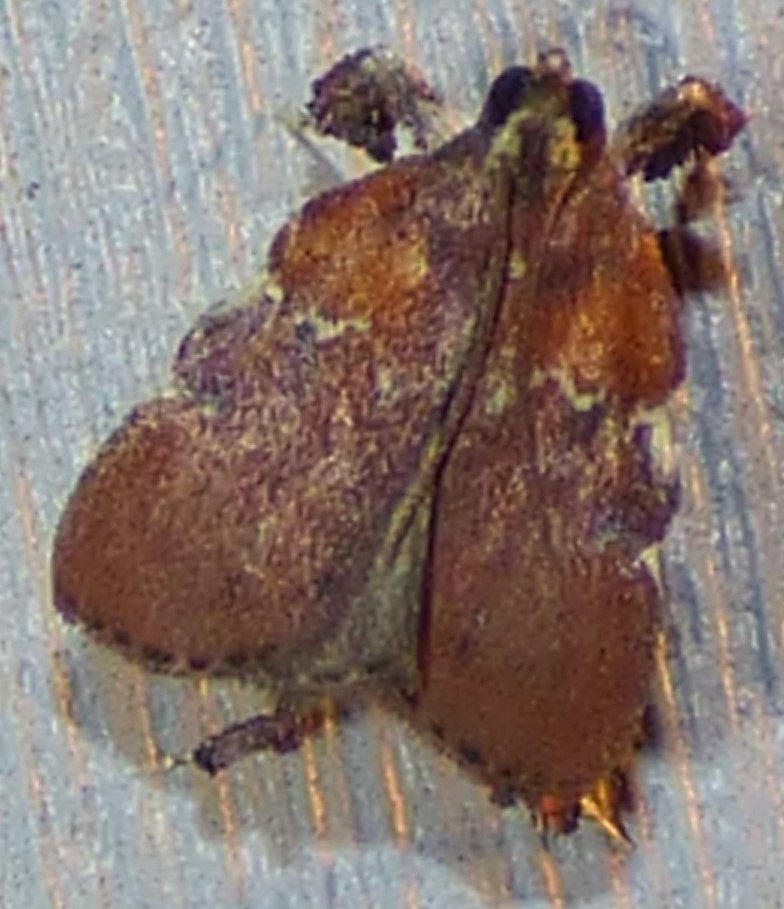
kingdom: Animalia
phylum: Arthropoda
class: Insecta
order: Lepidoptera
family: Pyralidae
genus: Galasa
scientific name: Galasa nigrinodis
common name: Boxwood leaftier moth
